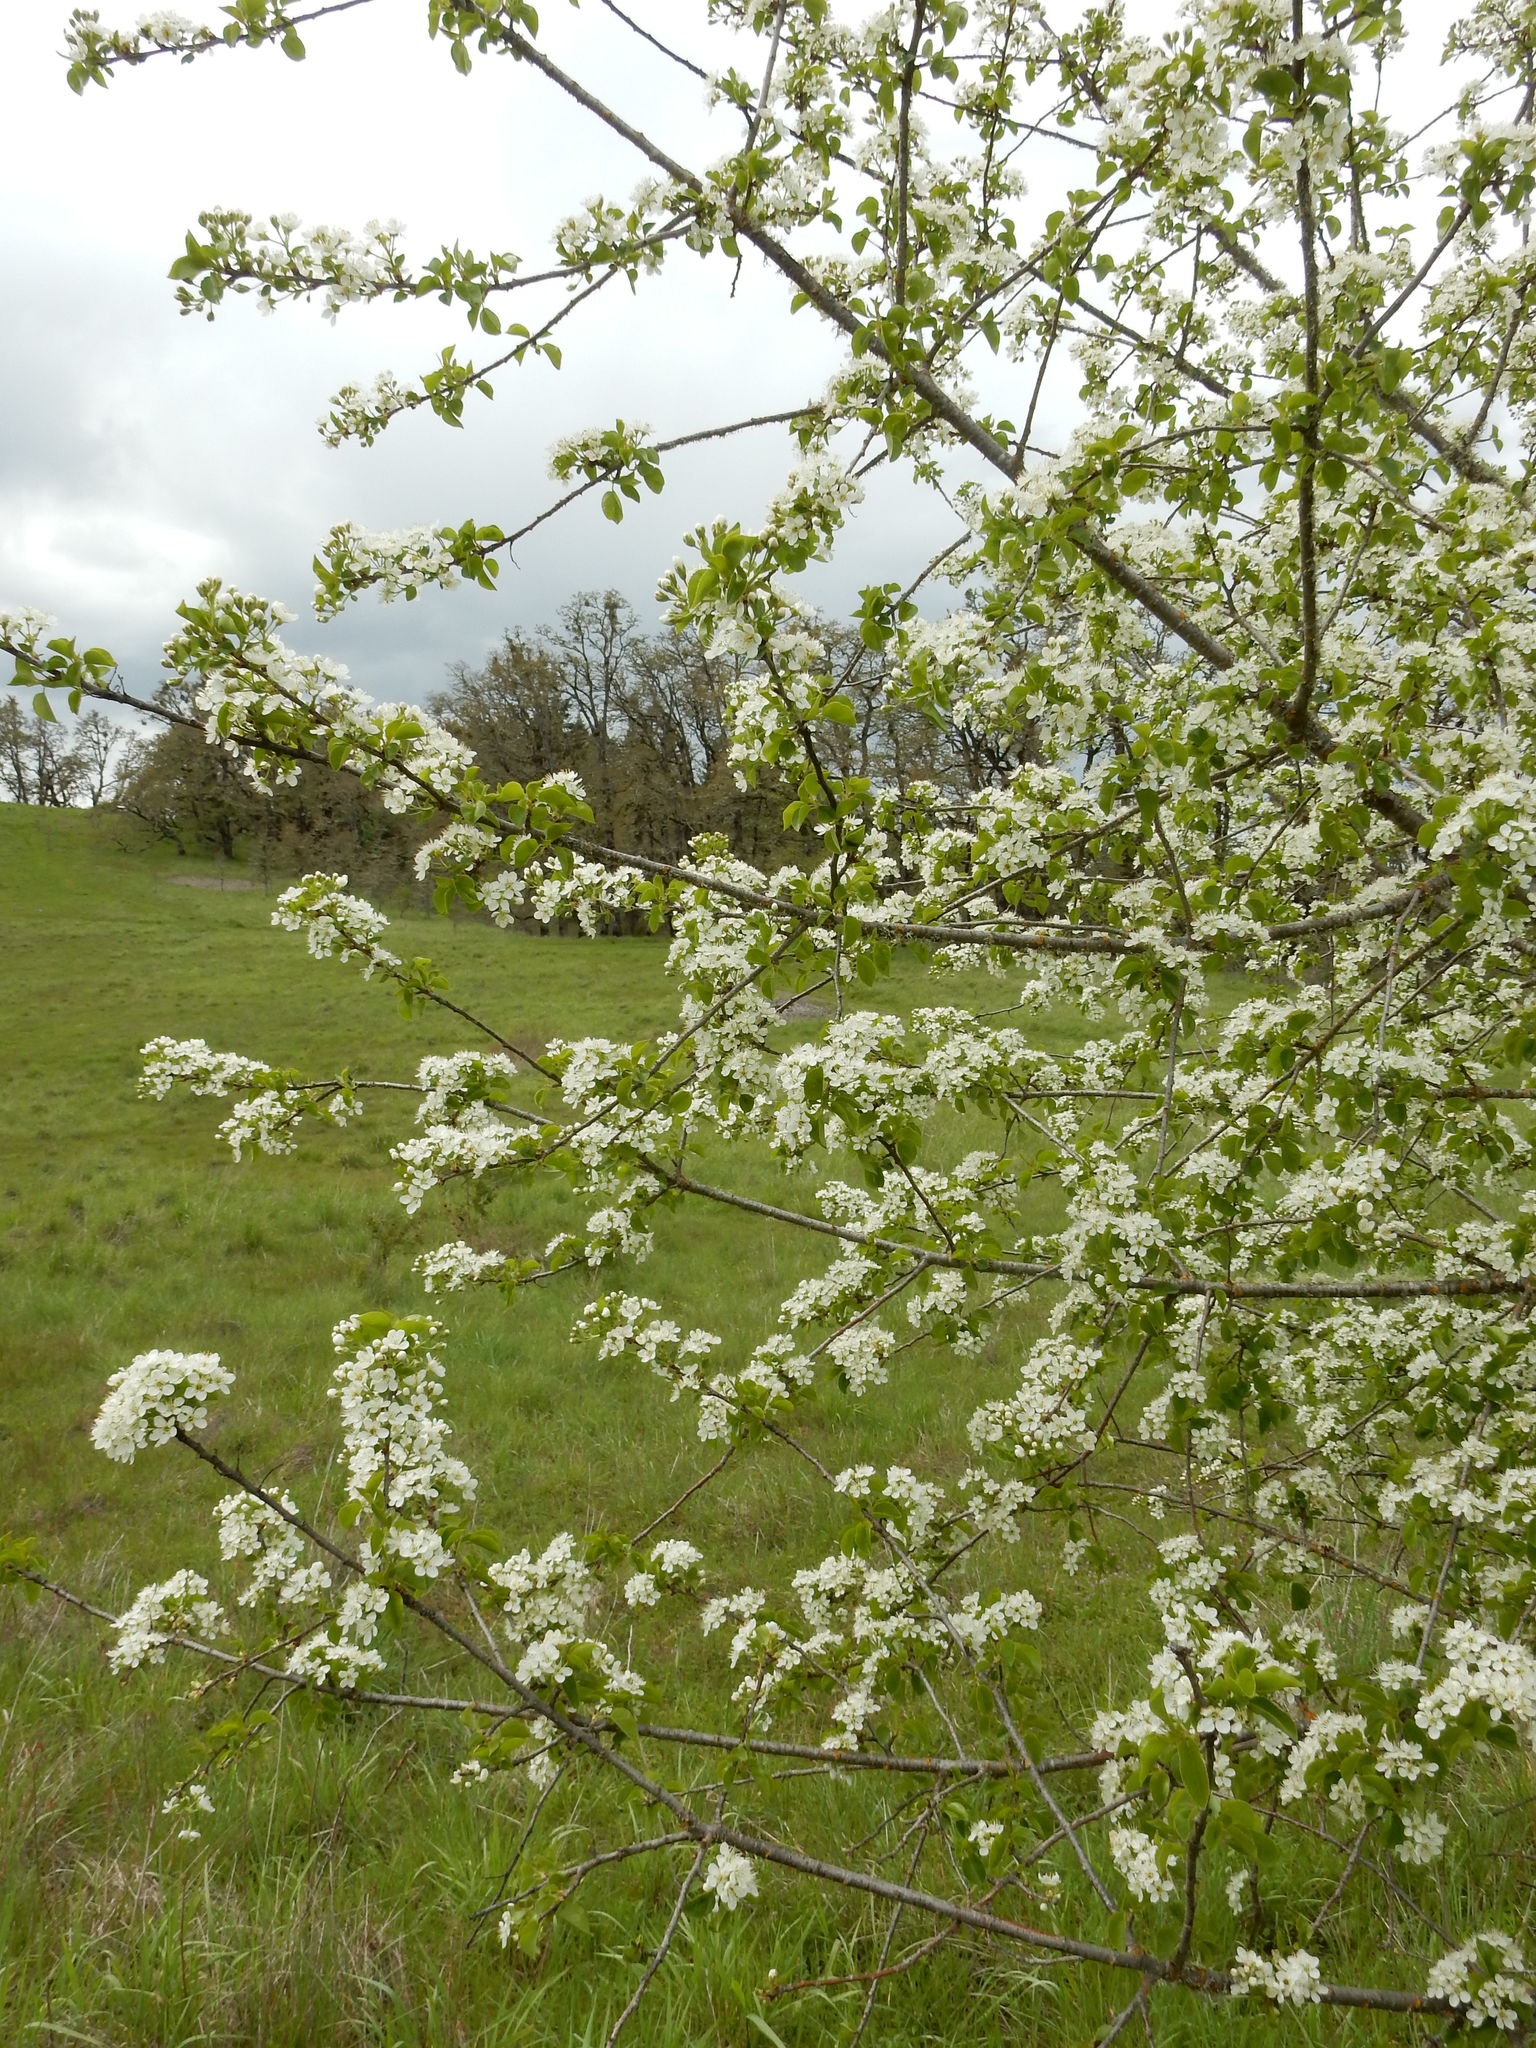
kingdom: Plantae
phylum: Tracheophyta
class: Magnoliopsida
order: Rosales
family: Rosaceae
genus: Prunus
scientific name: Prunus mahaleb
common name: Mahaleb cherry
